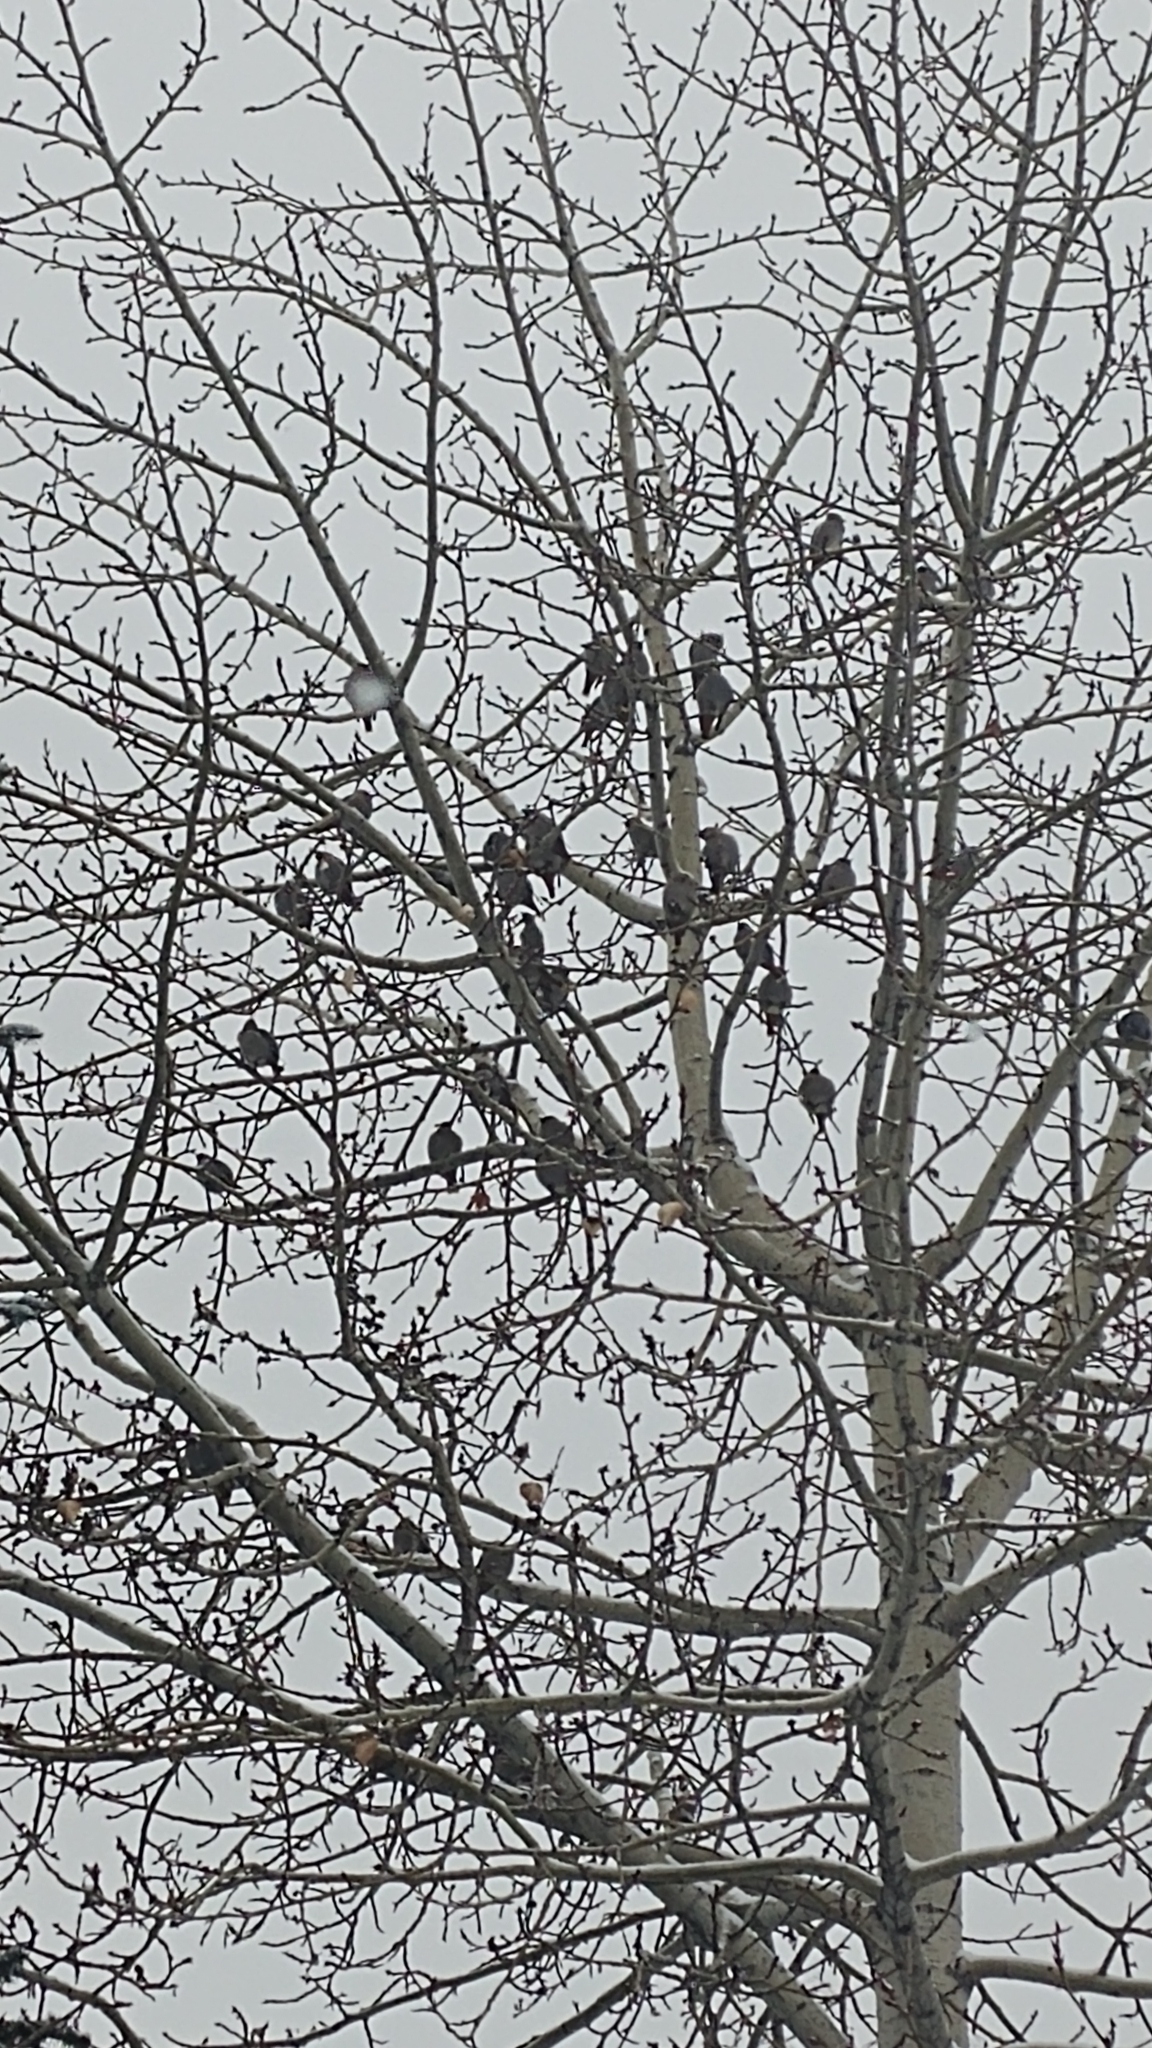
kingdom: Animalia
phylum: Chordata
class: Aves
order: Passeriformes
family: Bombycillidae
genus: Bombycilla
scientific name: Bombycilla garrulus
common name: Bohemian waxwing
